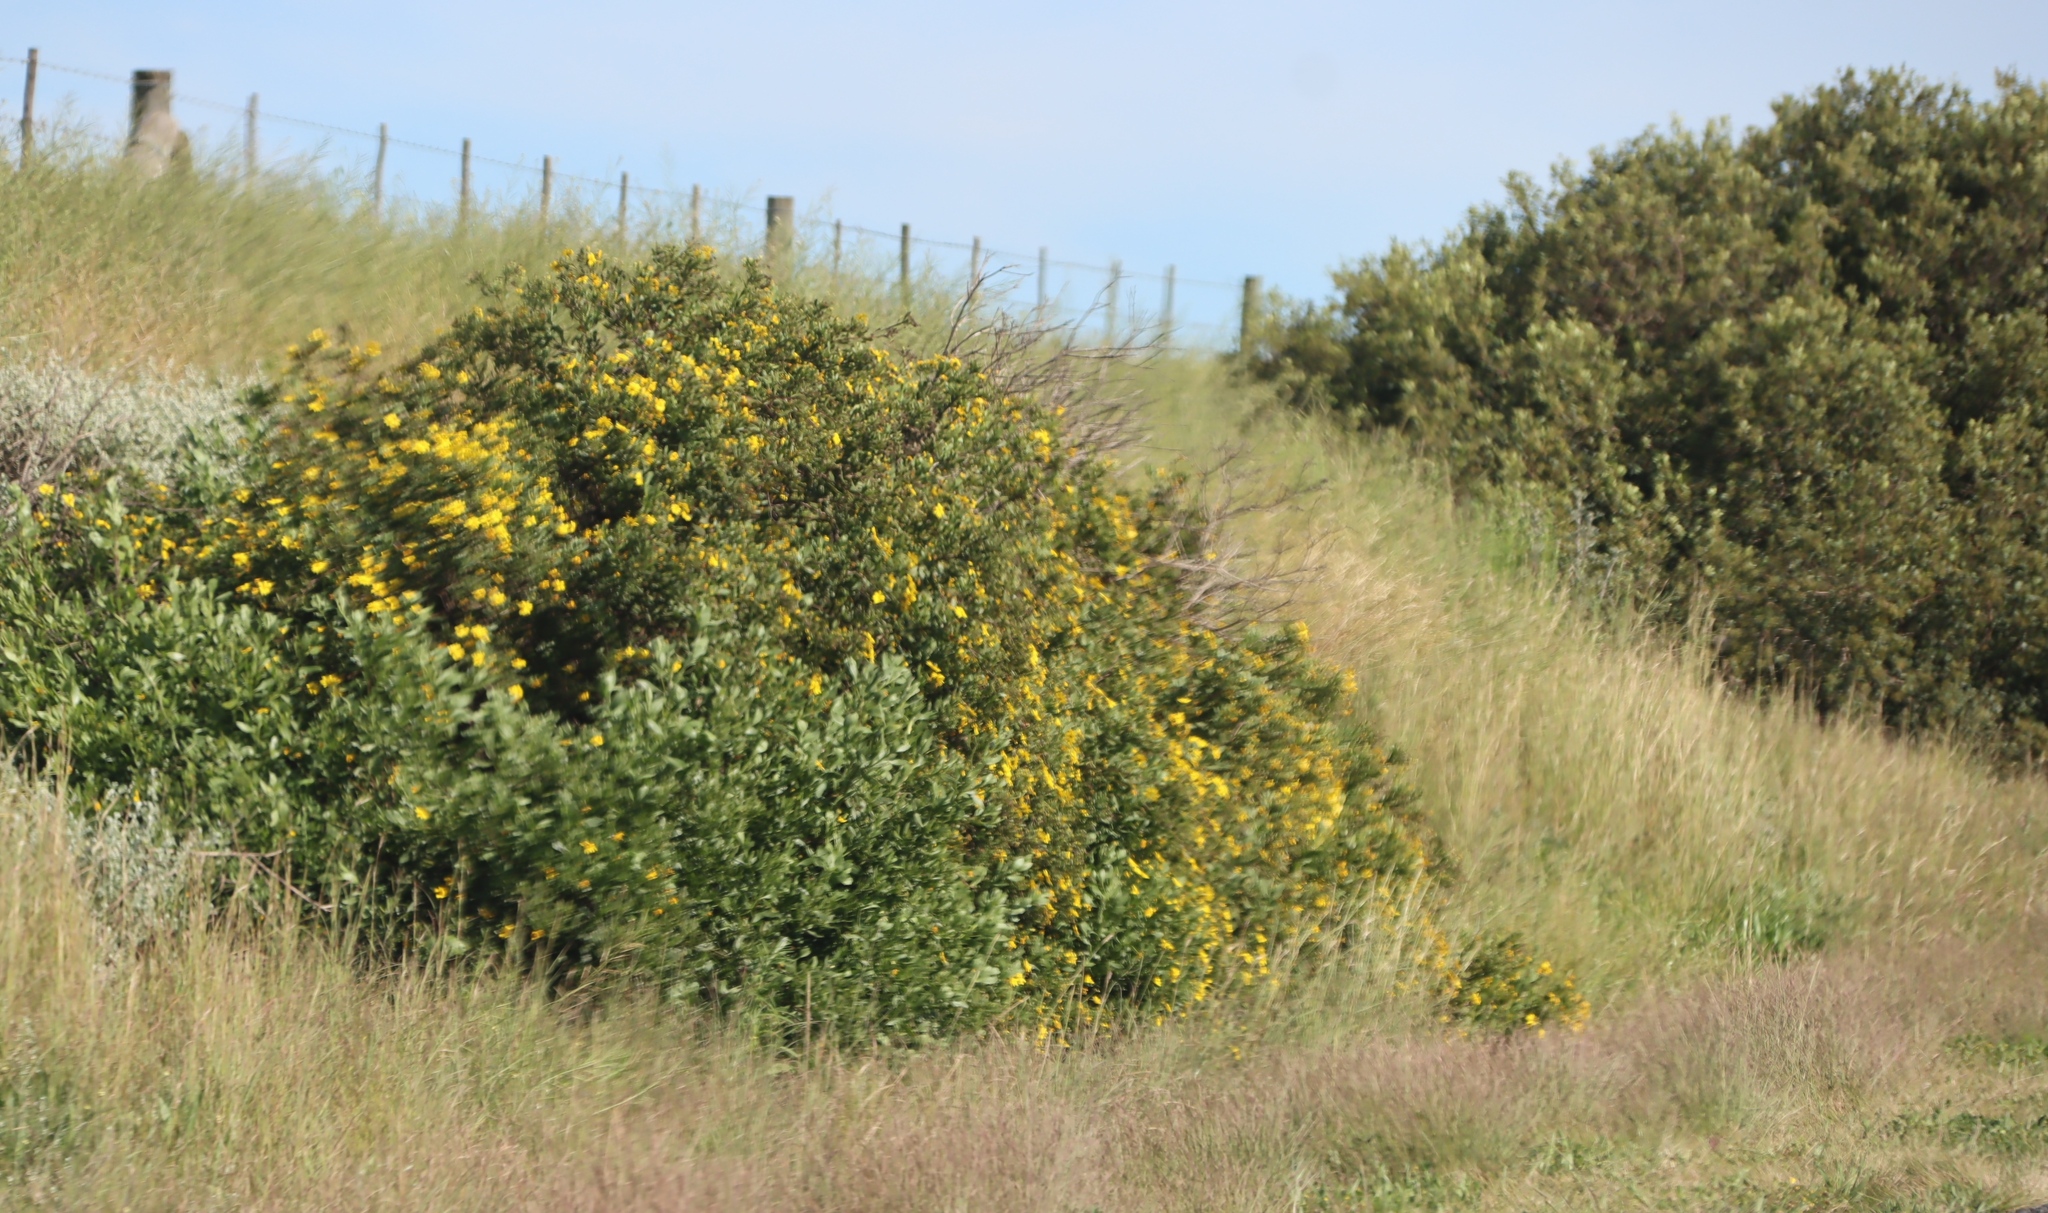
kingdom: Plantae
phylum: Tracheophyta
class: Magnoliopsida
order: Asterales
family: Asteraceae
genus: Osteospermum
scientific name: Osteospermum moniliferum
